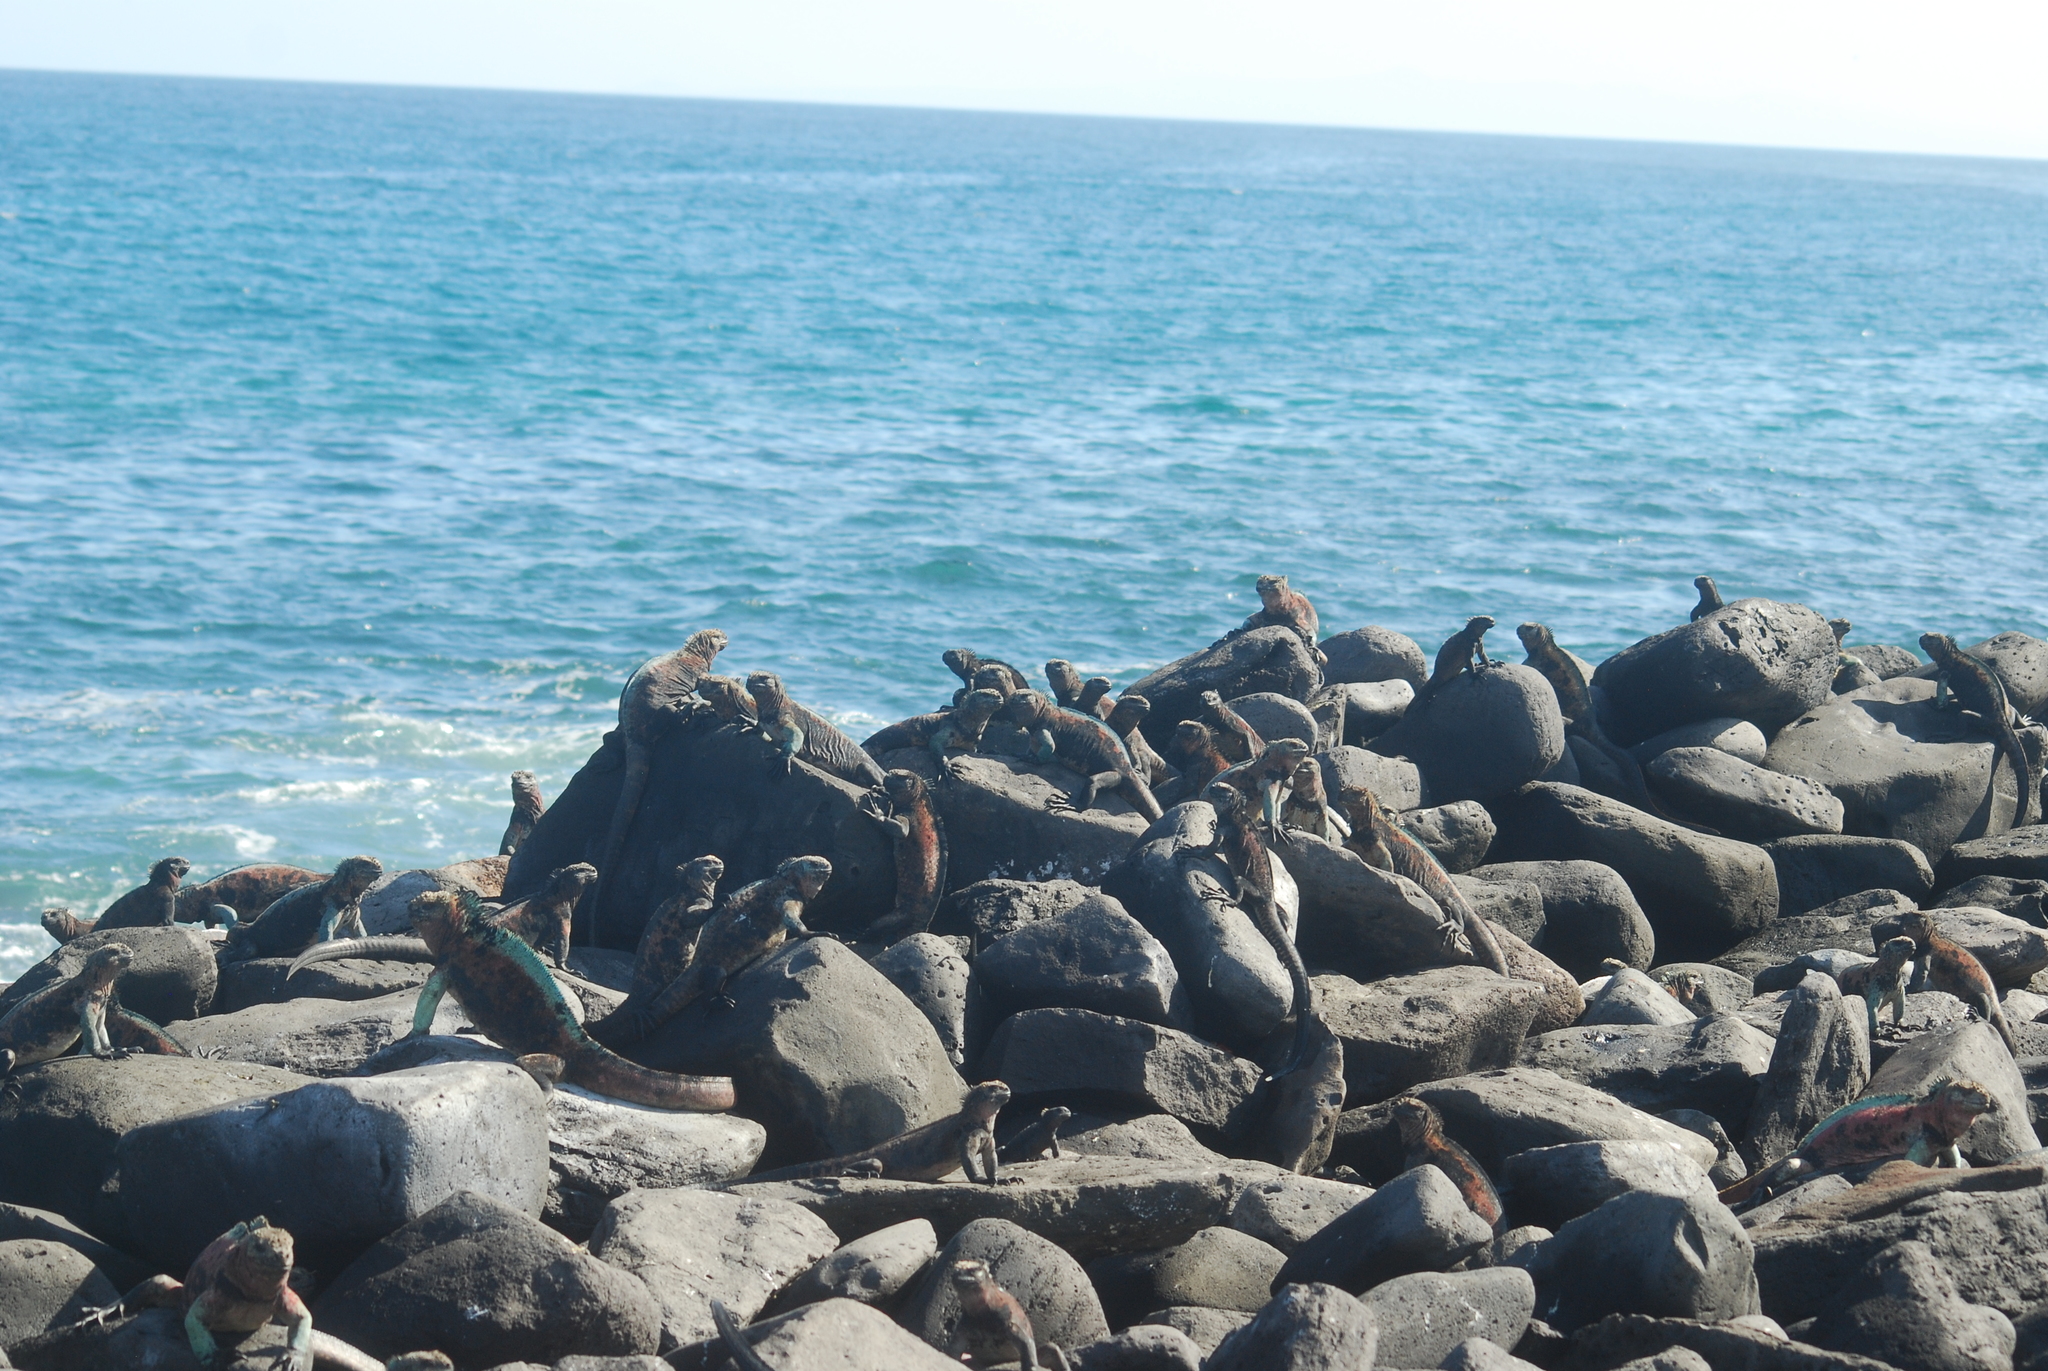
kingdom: Animalia
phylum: Chordata
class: Squamata
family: Iguanidae
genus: Amblyrhynchus
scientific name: Amblyrhynchus cristatus
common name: Marine iguana
